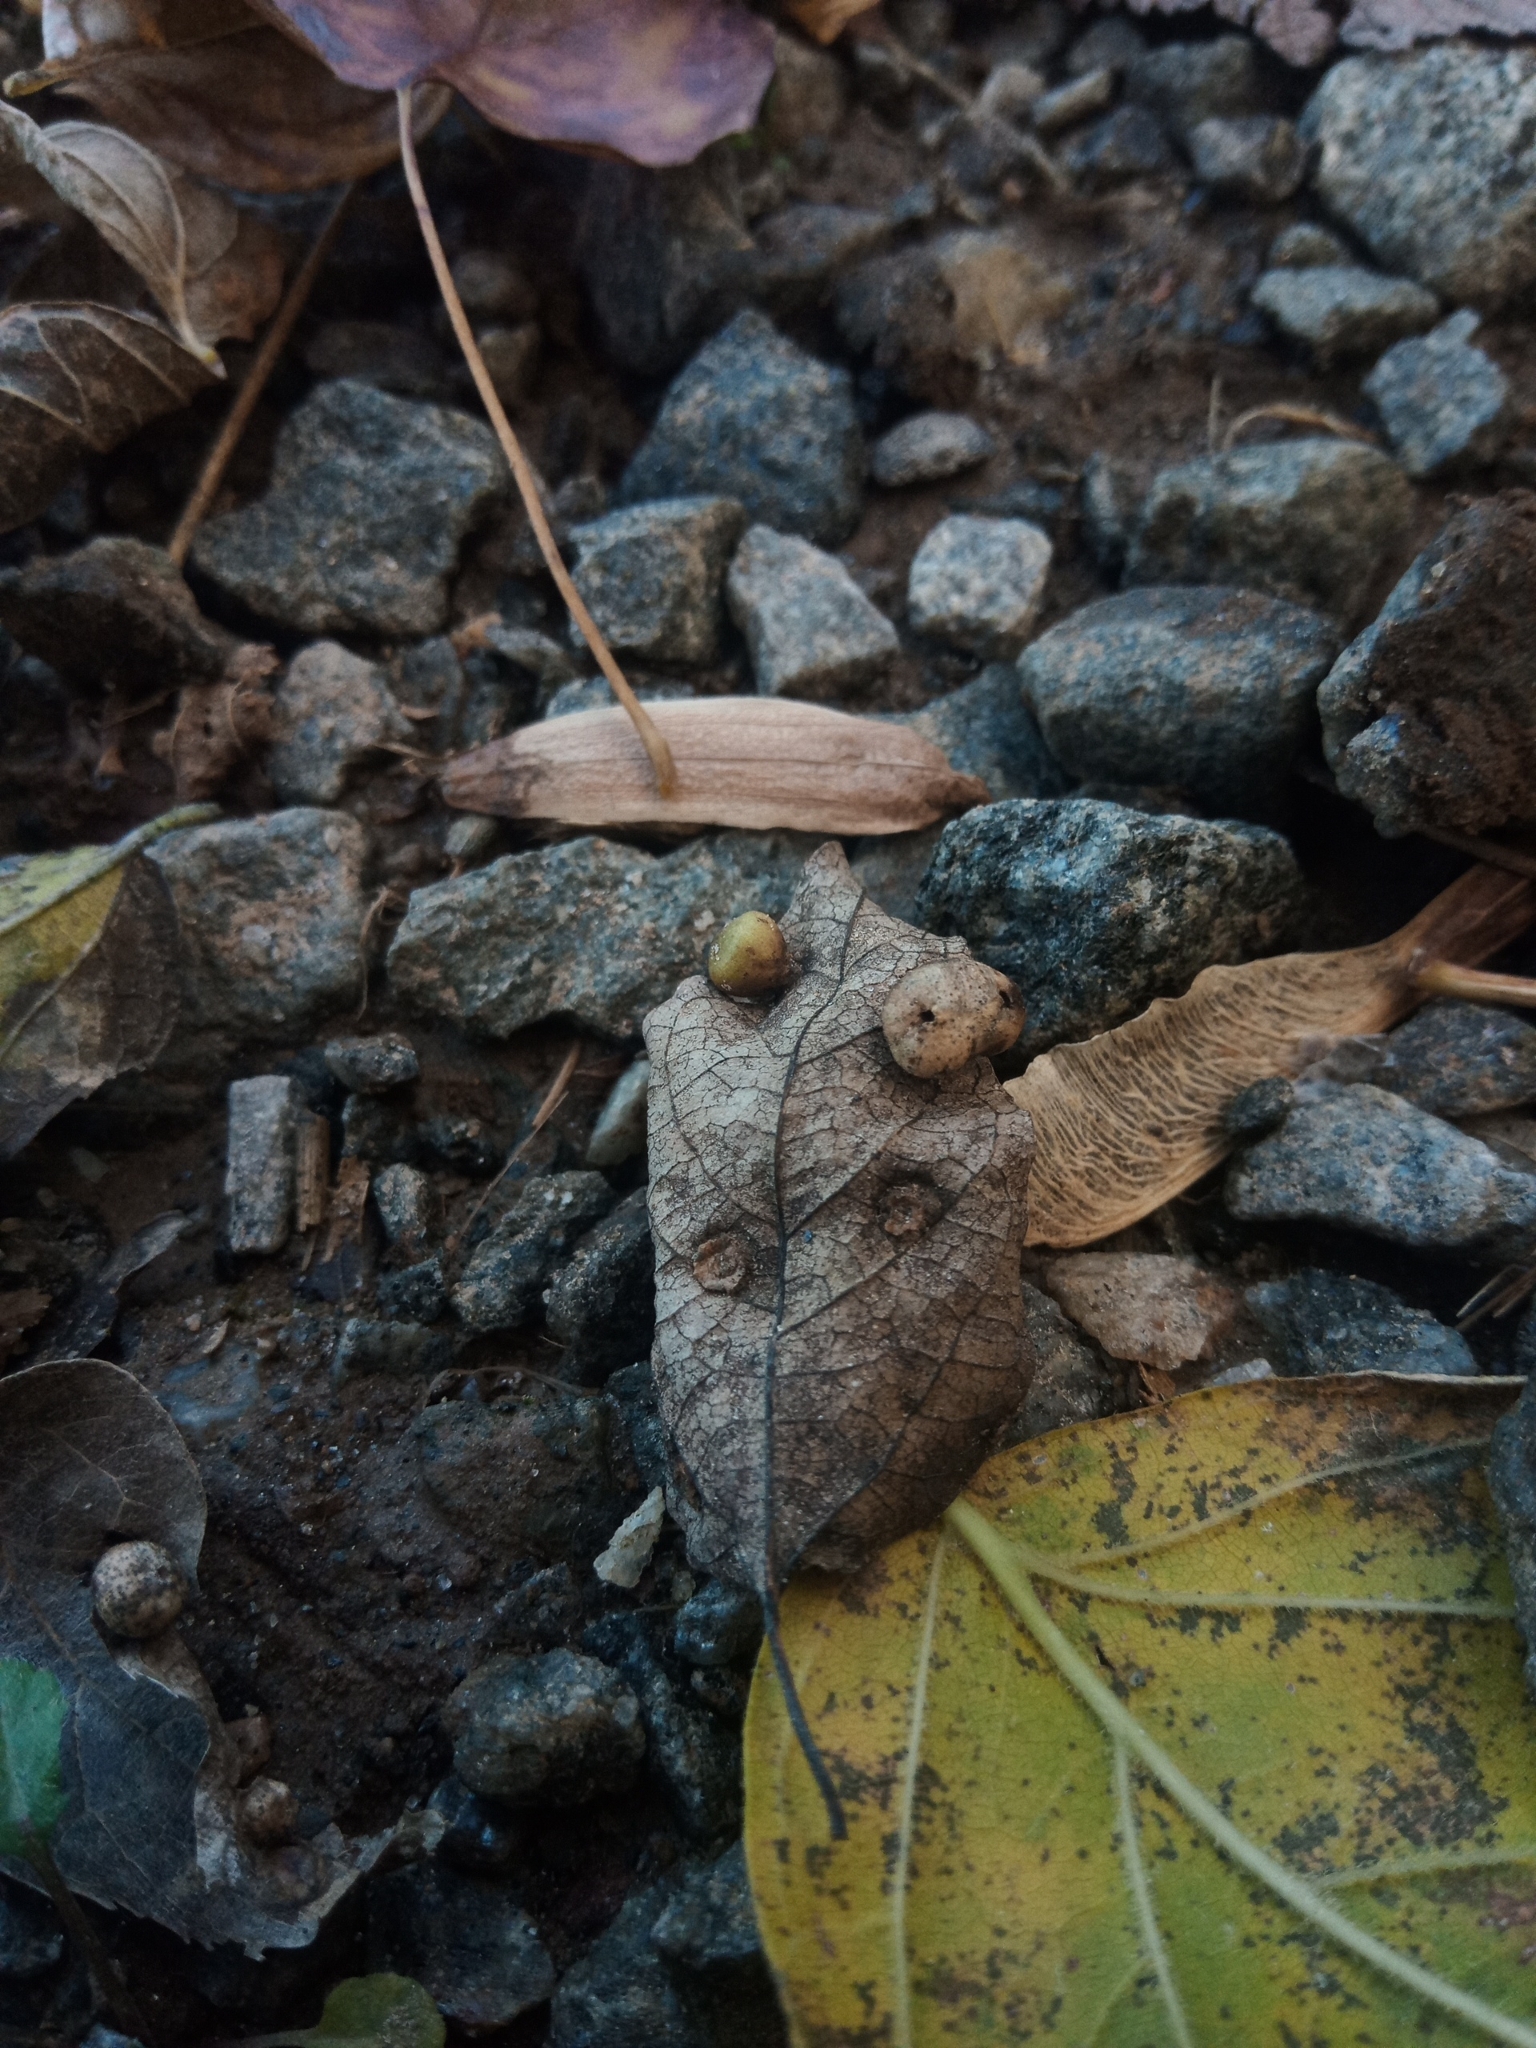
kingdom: Animalia
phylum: Arthropoda
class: Insecta
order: Hemiptera
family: Aphalaridae
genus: Pachypsylla
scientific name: Pachypsylla celtidismamma
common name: Hackberry nipplegall psyllid
